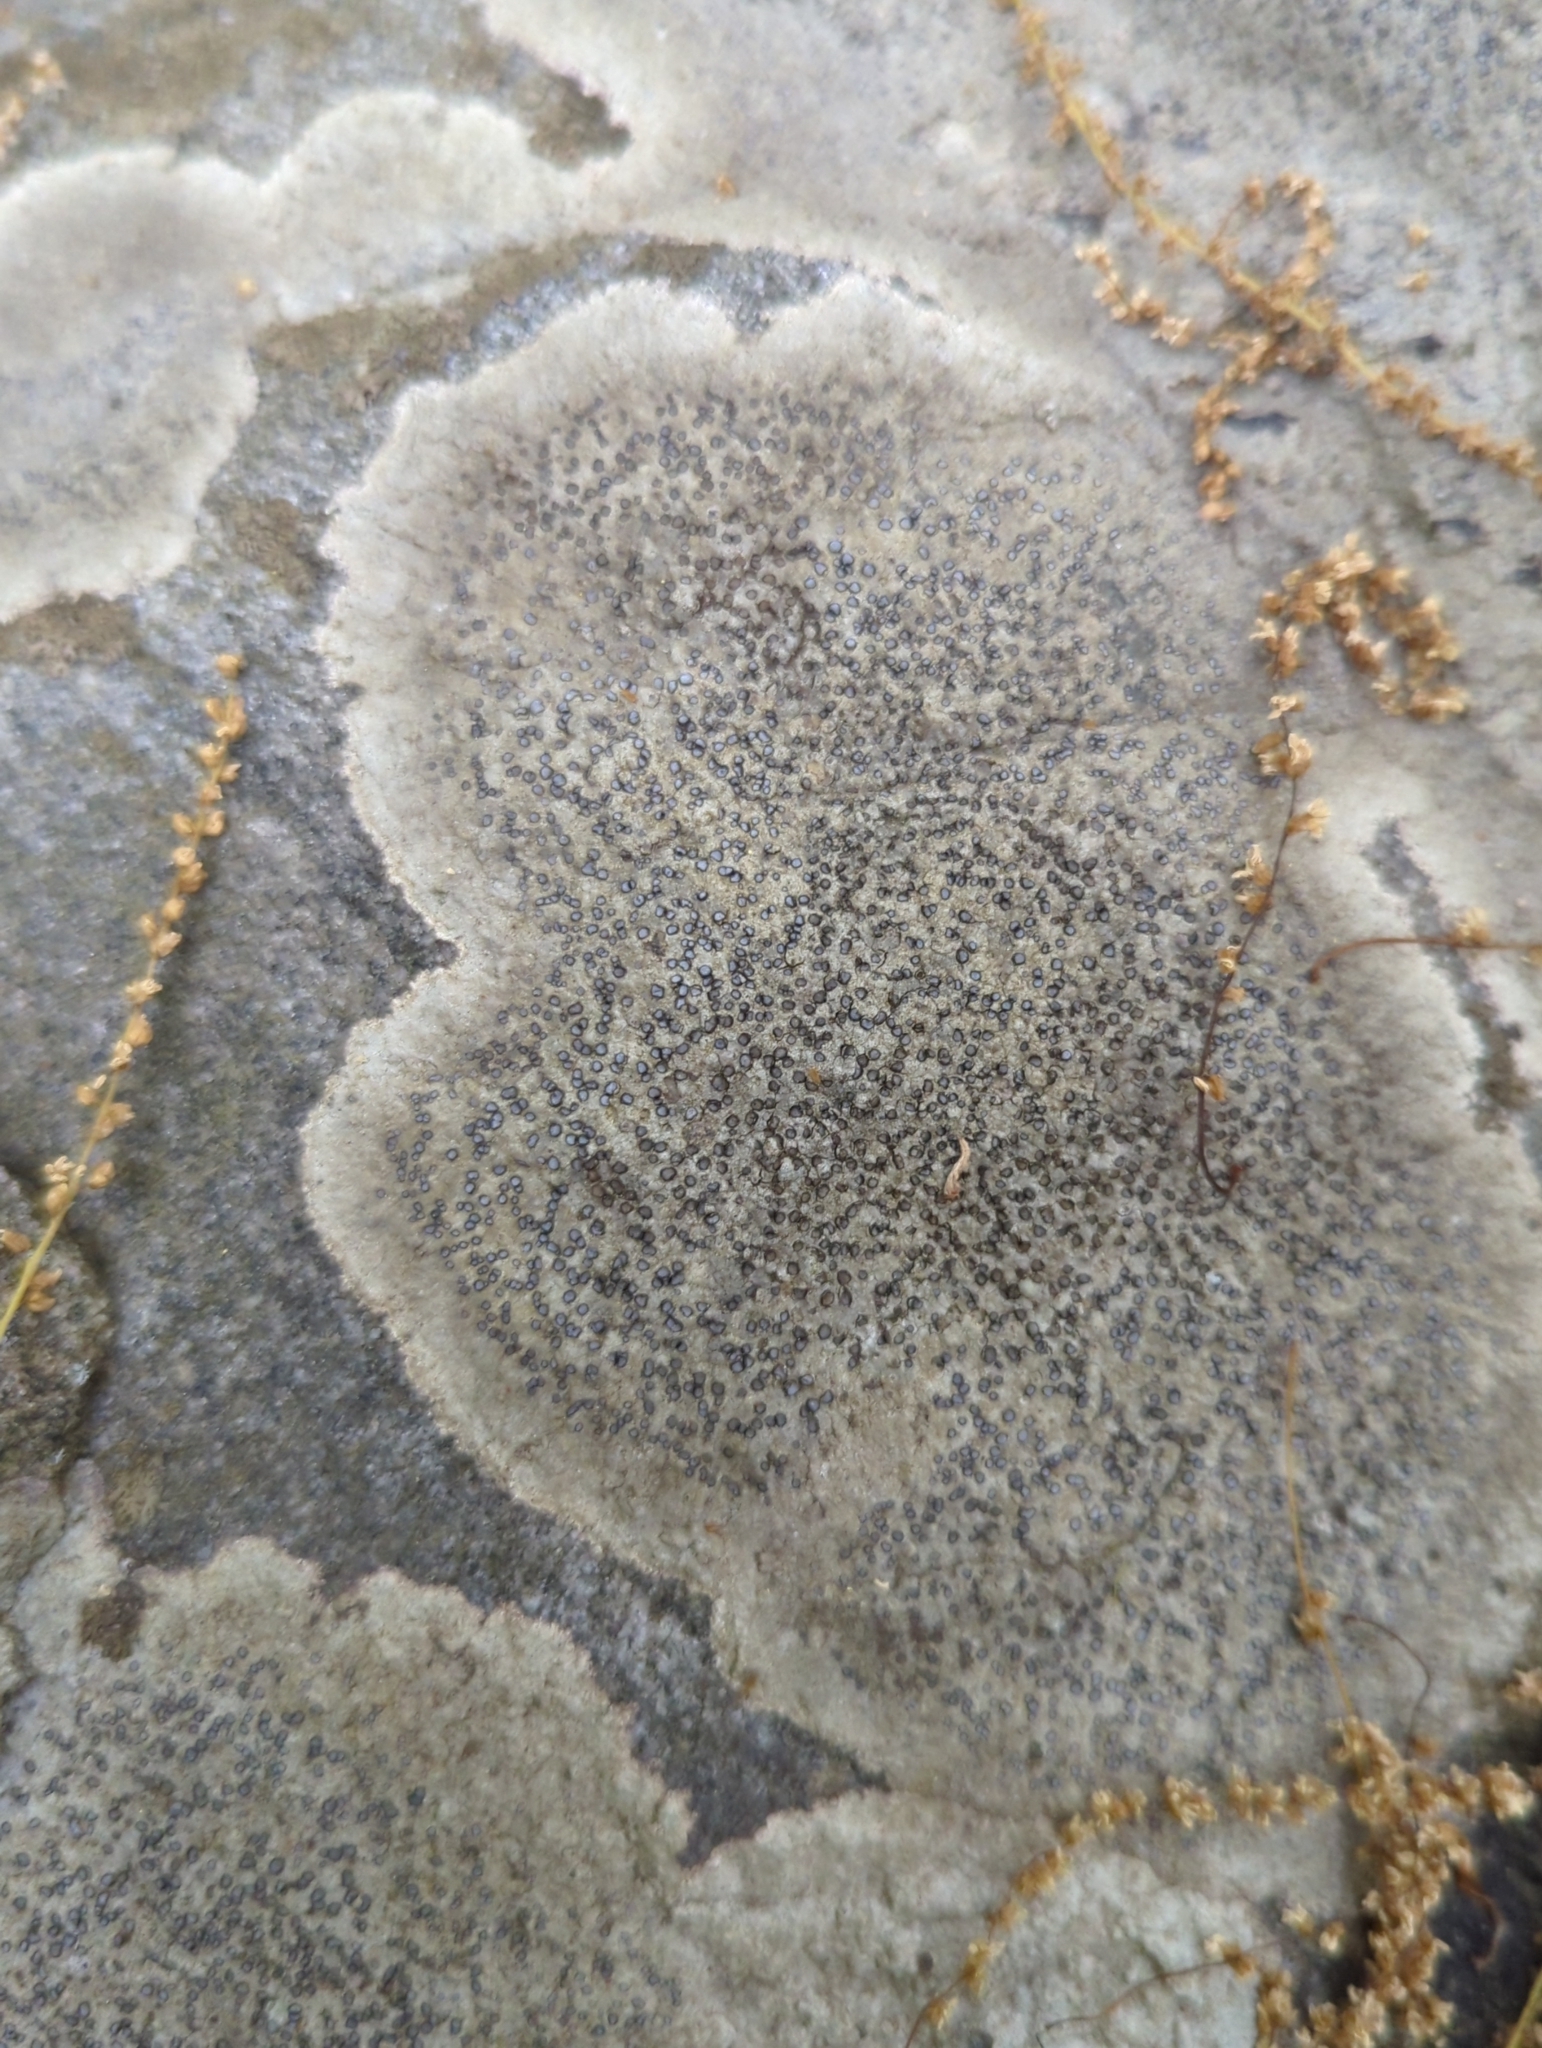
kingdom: Fungi
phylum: Ascomycota
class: Lecanoromycetes
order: Lecideales
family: Lecideaceae
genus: Porpidia
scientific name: Porpidia albocaerulescens
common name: Smokey-eyed boulder lichen
